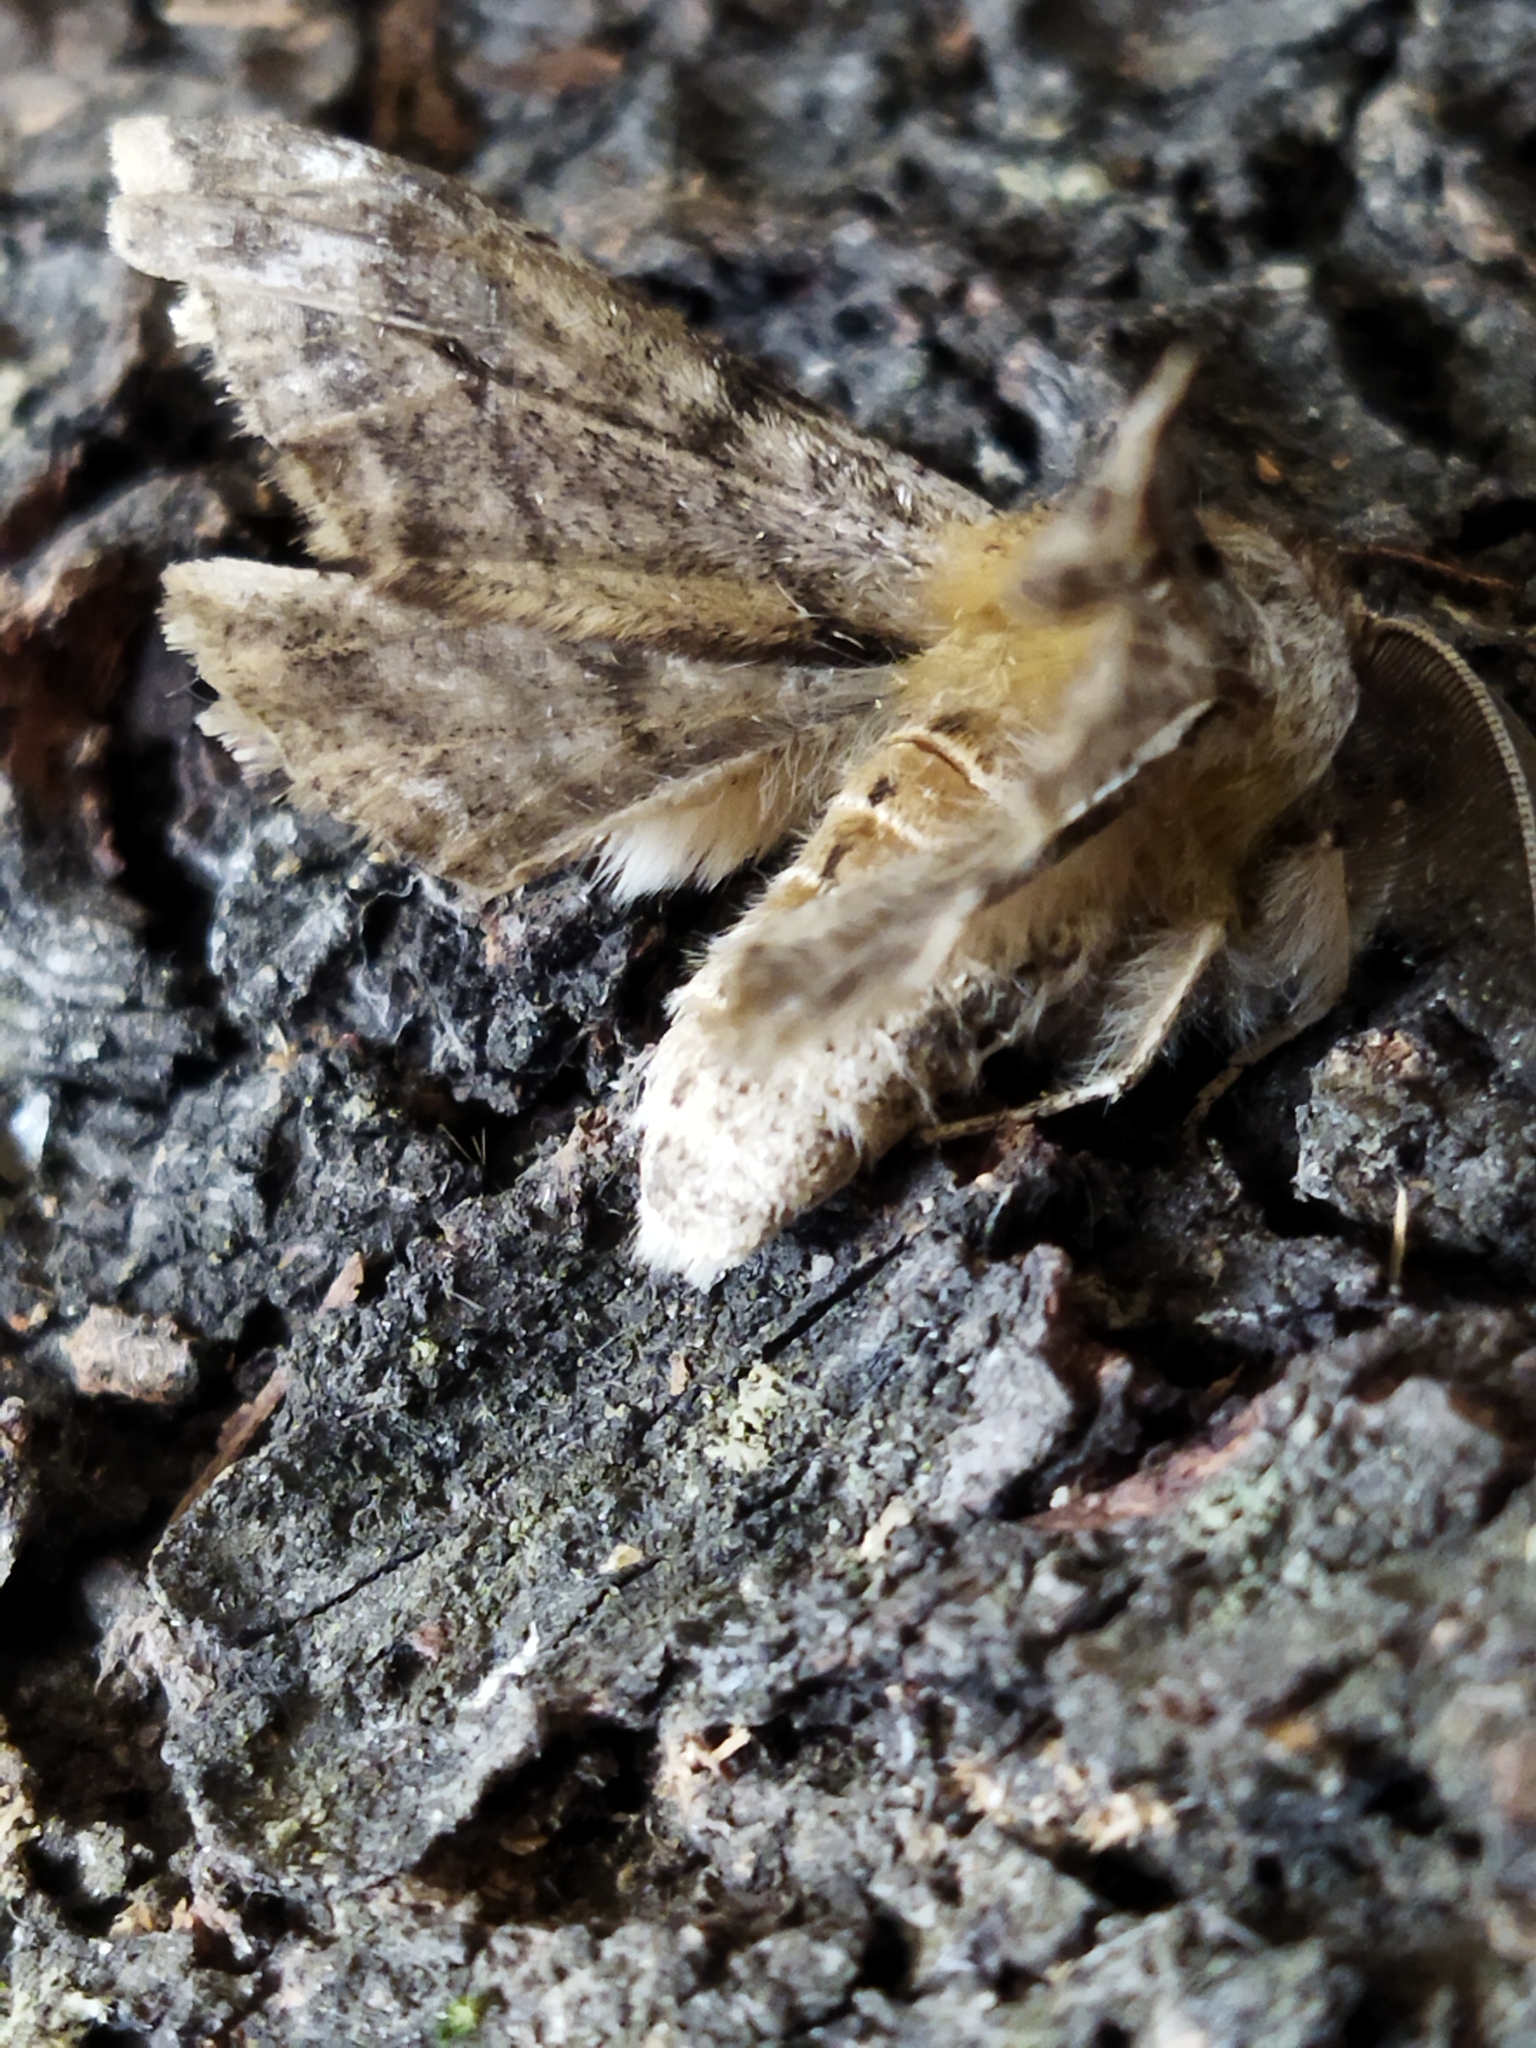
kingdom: Animalia
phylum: Arthropoda
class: Insecta
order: Lepidoptera
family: Geometridae
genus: Apochima
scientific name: Apochima flabellaria
